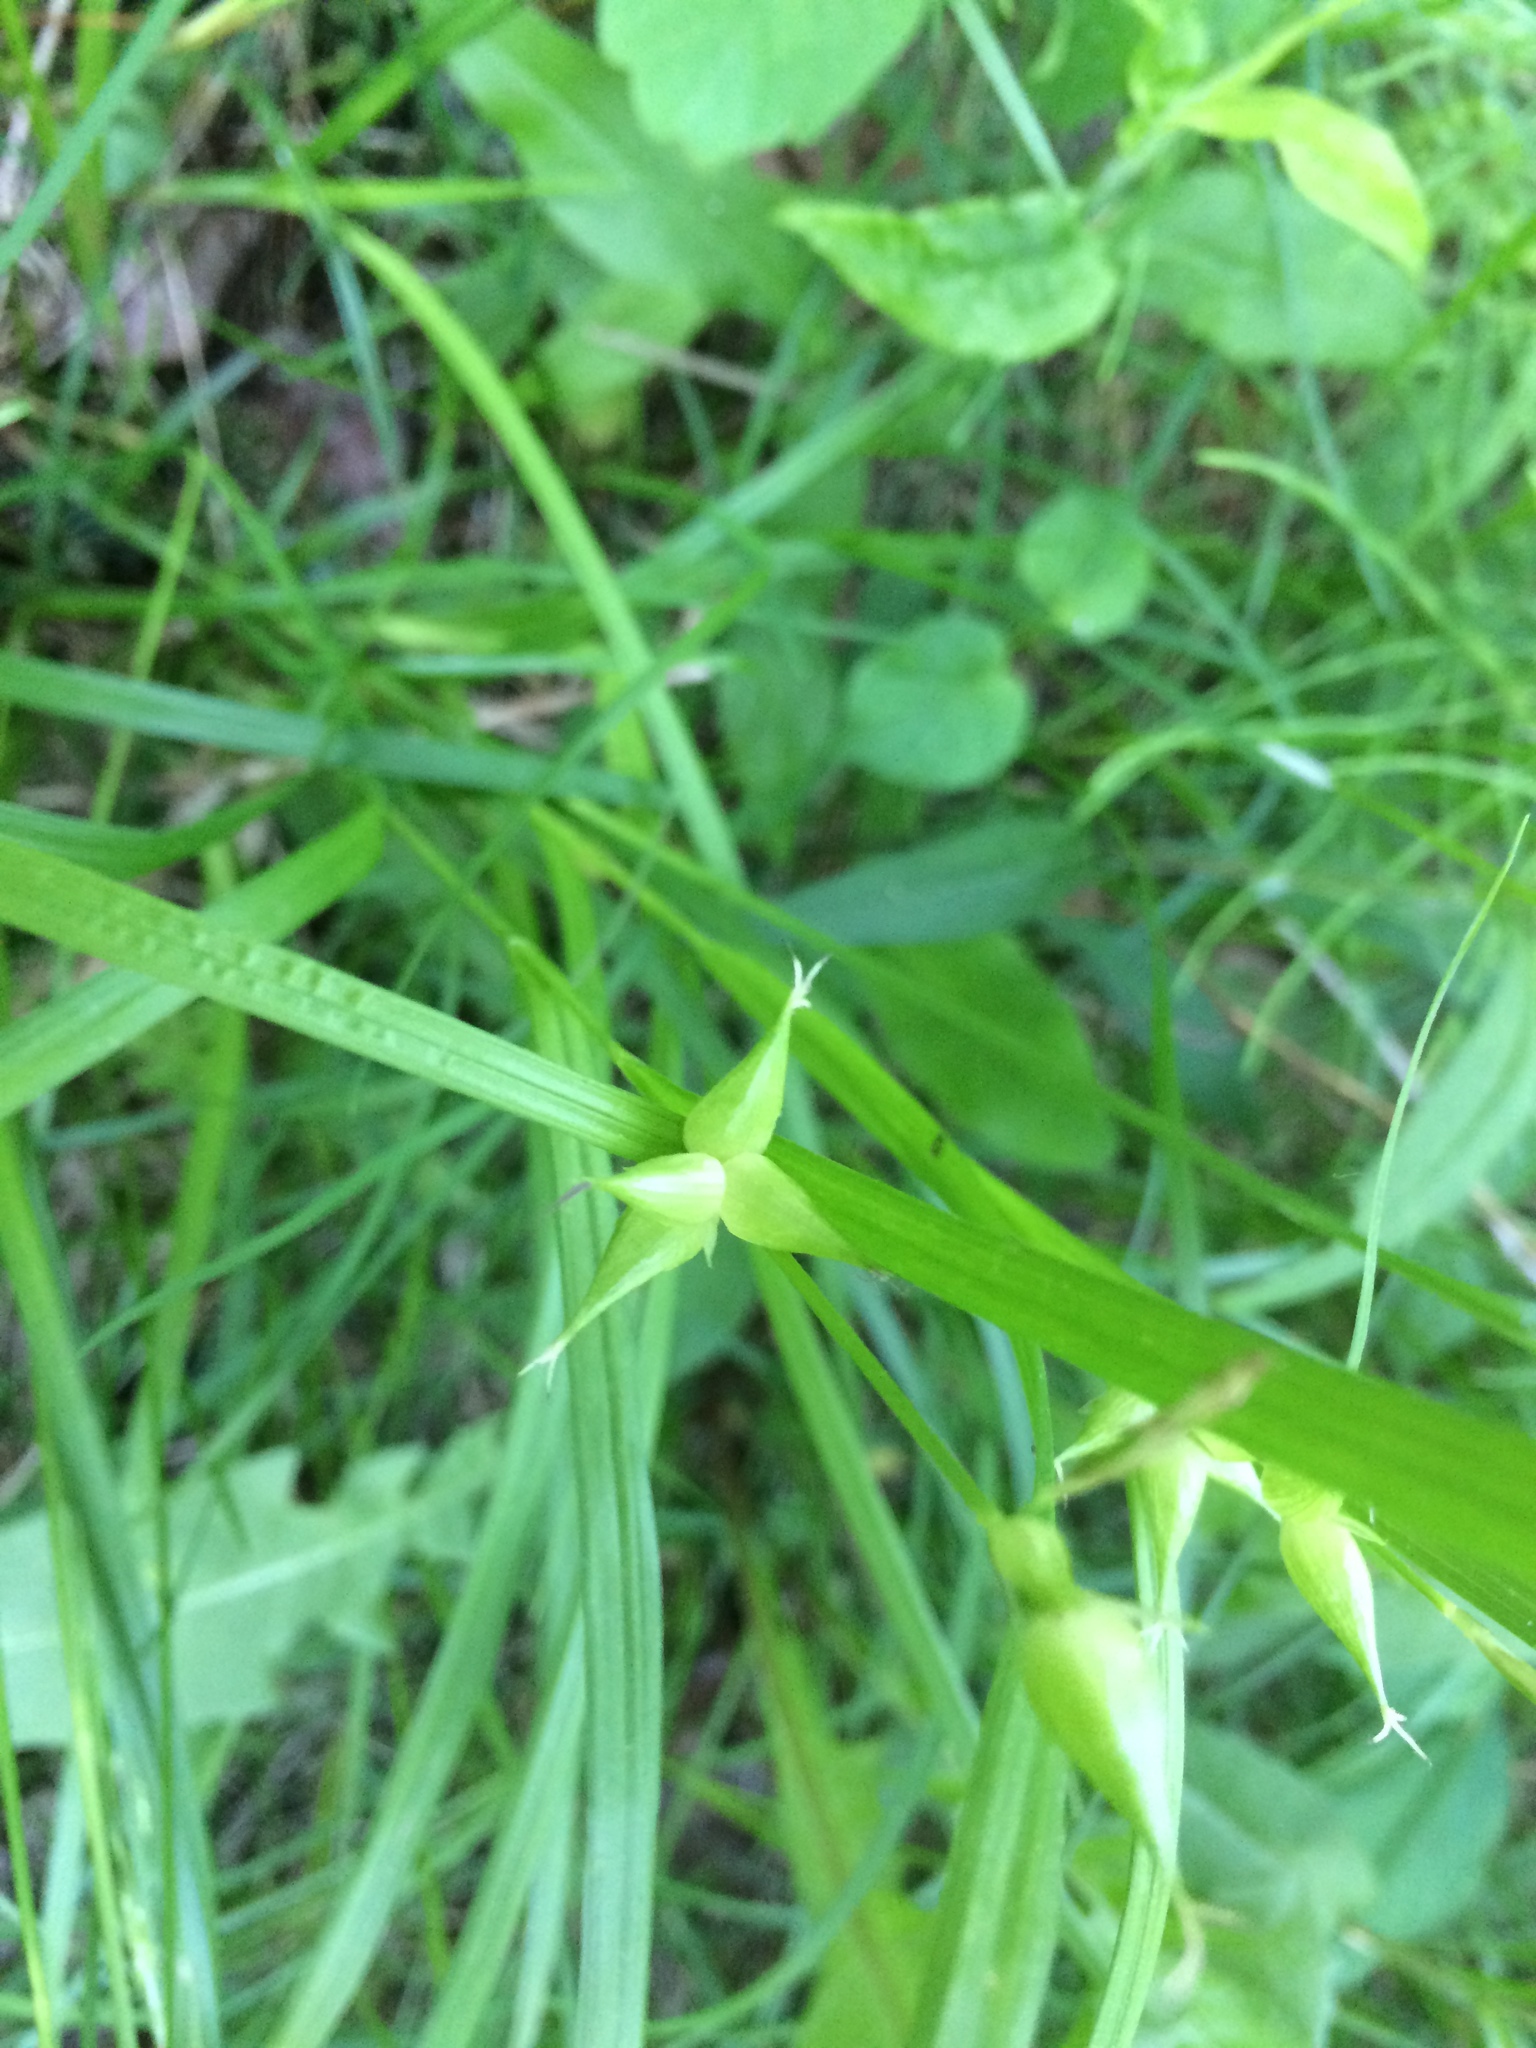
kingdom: Plantae
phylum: Tracheophyta
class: Liliopsida
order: Poales
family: Cyperaceae
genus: Carex
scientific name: Carex intumescens
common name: Greater bladder sedge
